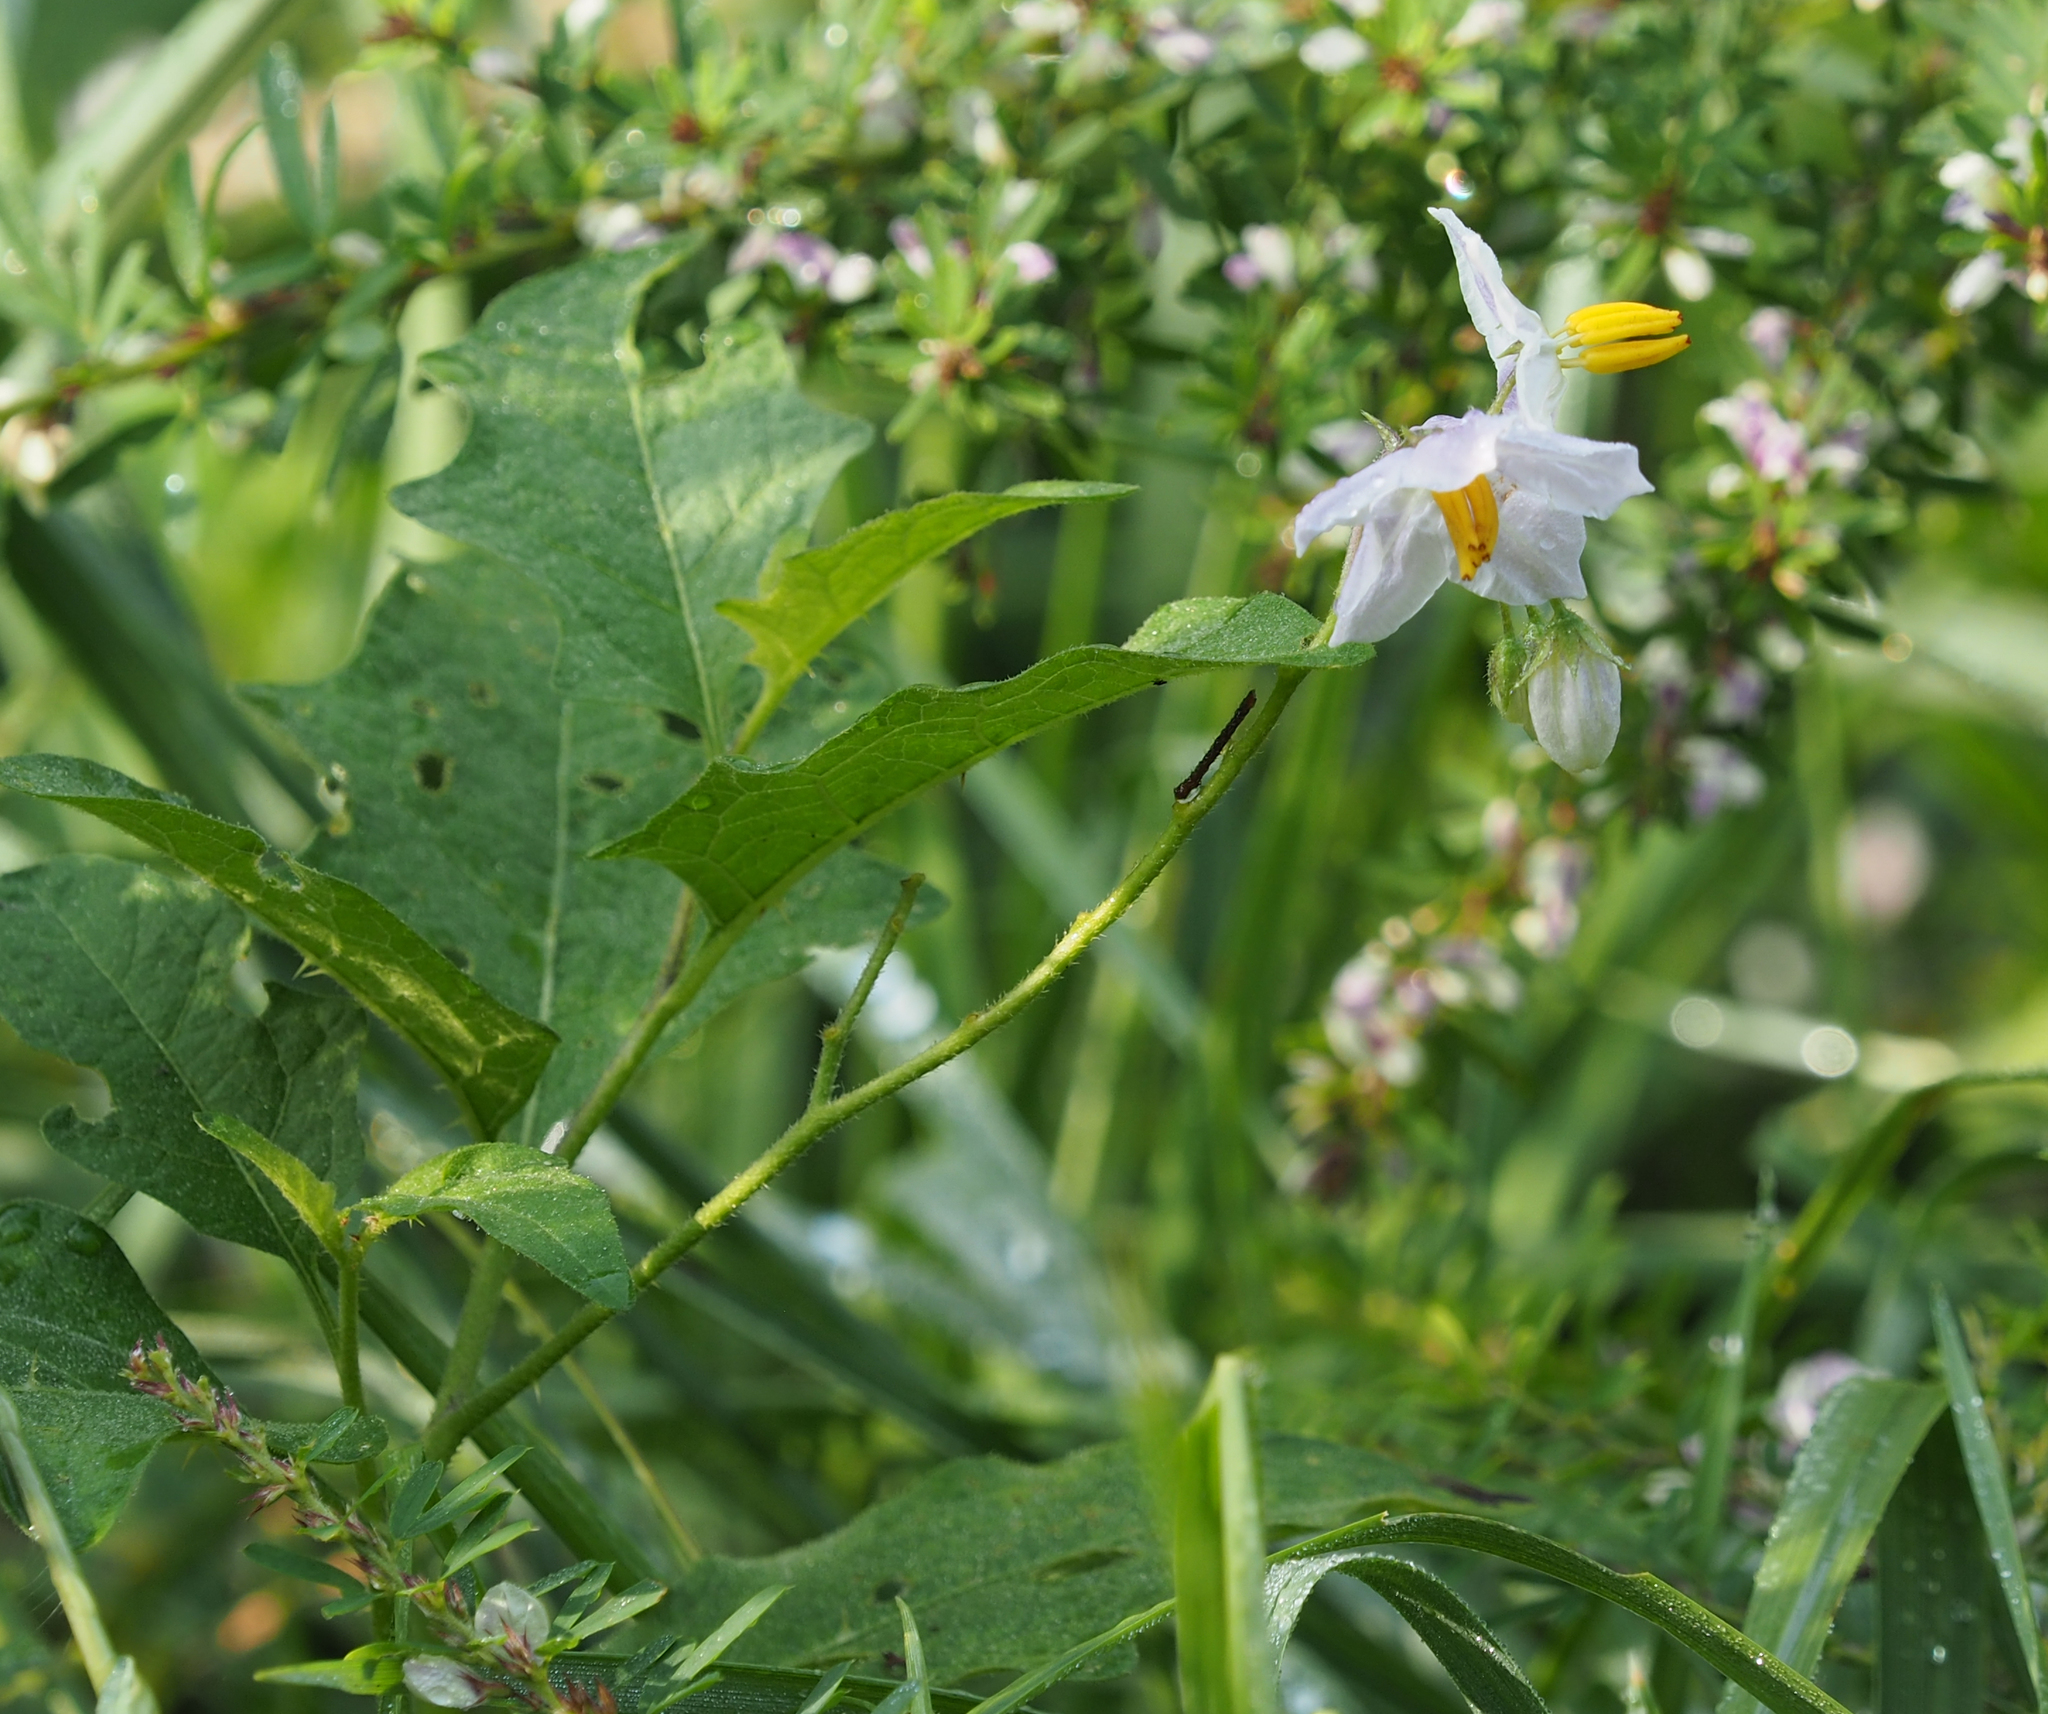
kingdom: Plantae
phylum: Tracheophyta
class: Magnoliopsida
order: Solanales
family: Solanaceae
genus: Solanum
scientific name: Solanum carolinense
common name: Horse-nettle
